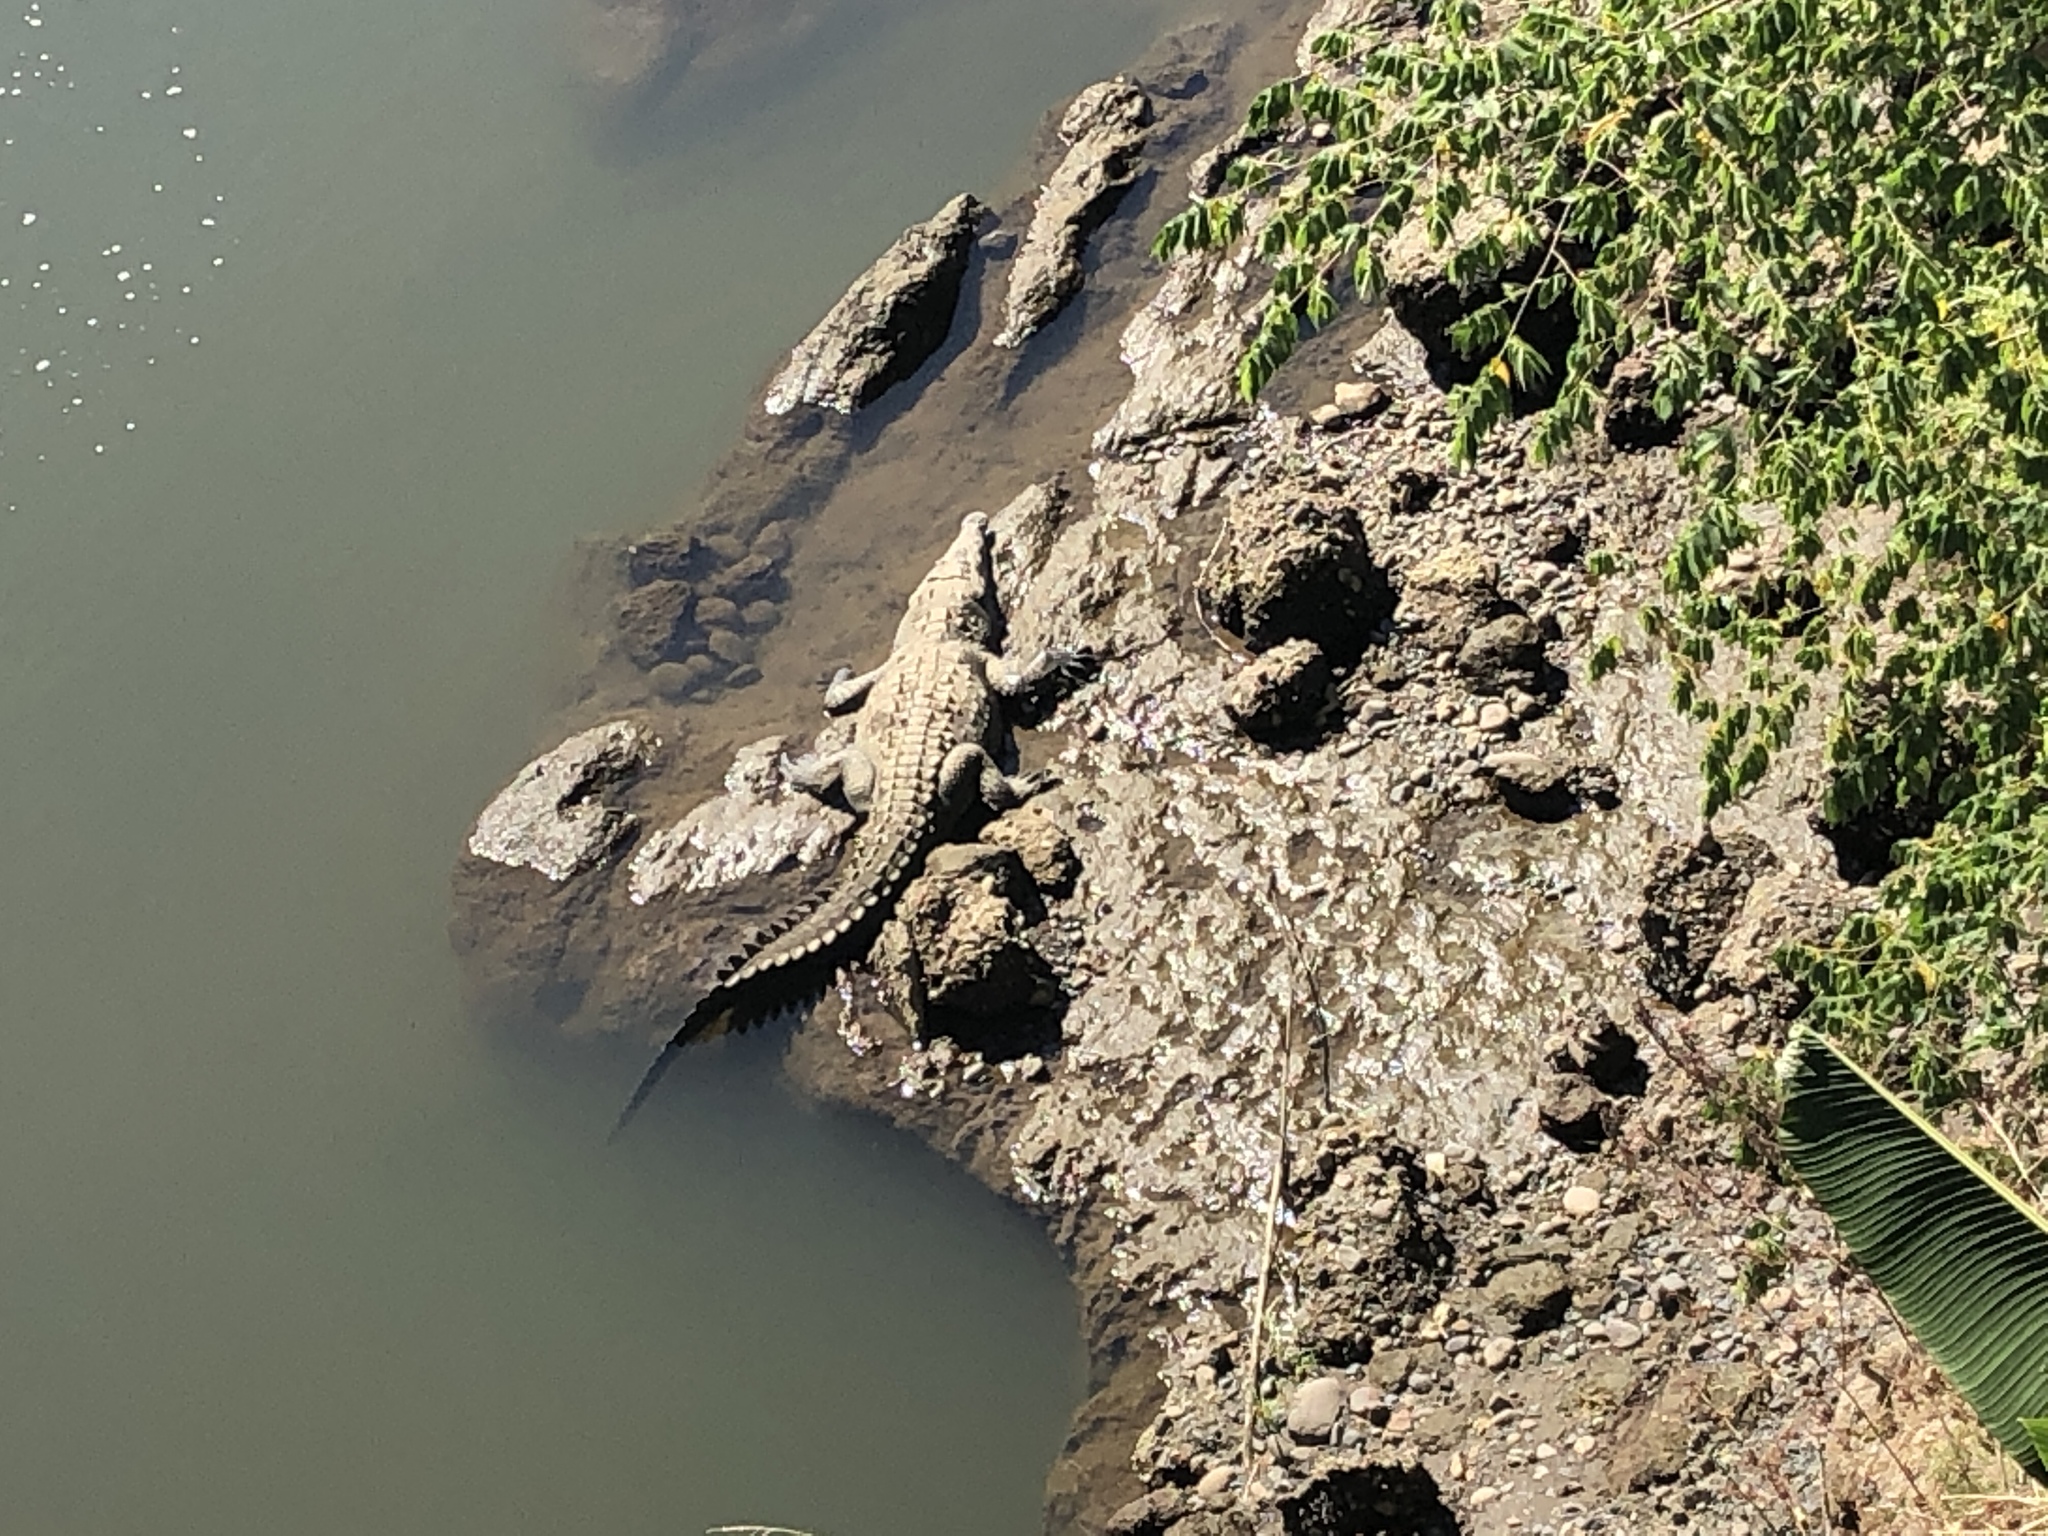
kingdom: Animalia
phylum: Chordata
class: Crocodylia
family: Crocodylidae
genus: Crocodylus
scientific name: Crocodylus acutus
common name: American crocodile
